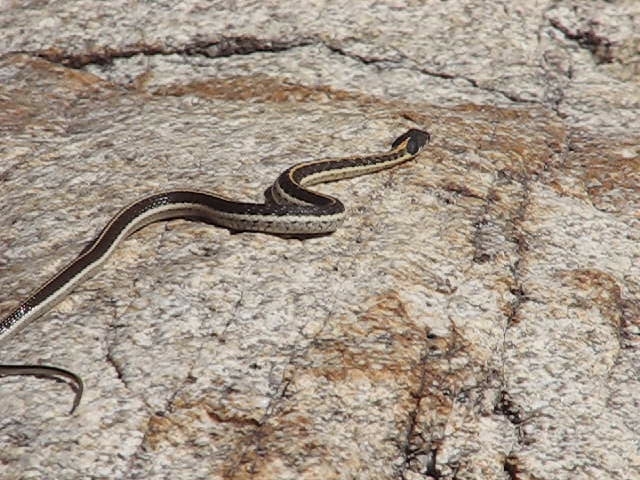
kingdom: Animalia
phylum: Chordata
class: Squamata
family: Colubridae
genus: Thamnophis
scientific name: Thamnophis cyrtopsis
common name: Black-necked gartersnake
